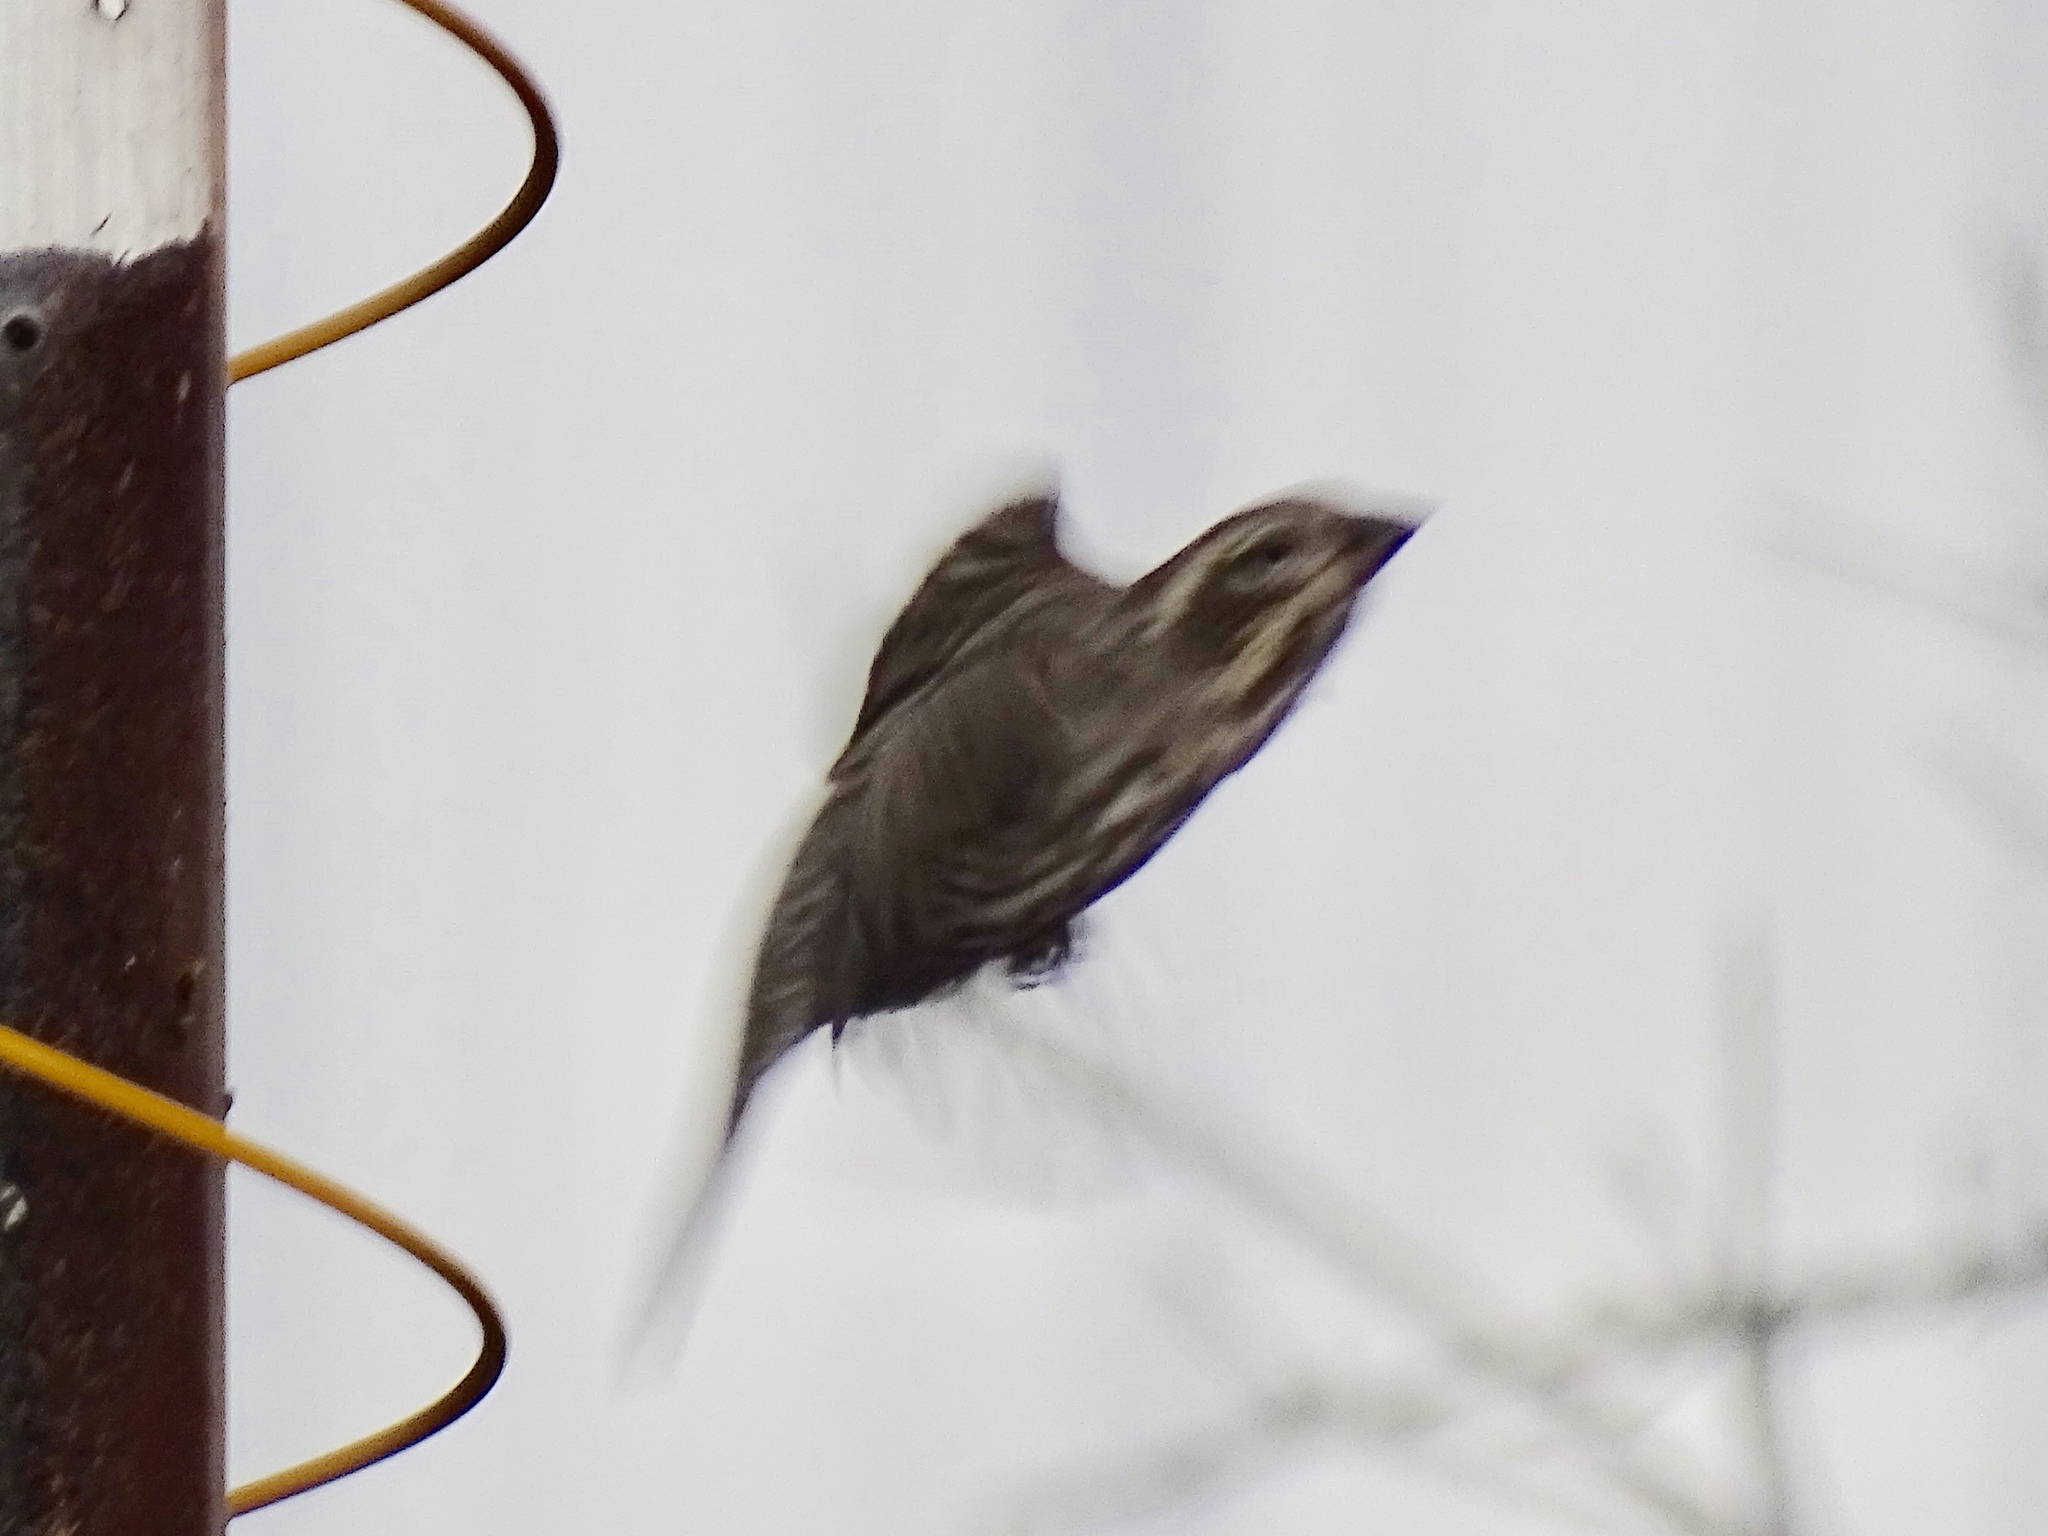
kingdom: Animalia
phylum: Chordata
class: Aves
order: Passeriformes
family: Fringillidae
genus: Haemorhous
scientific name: Haemorhous purpureus
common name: Purple finch
